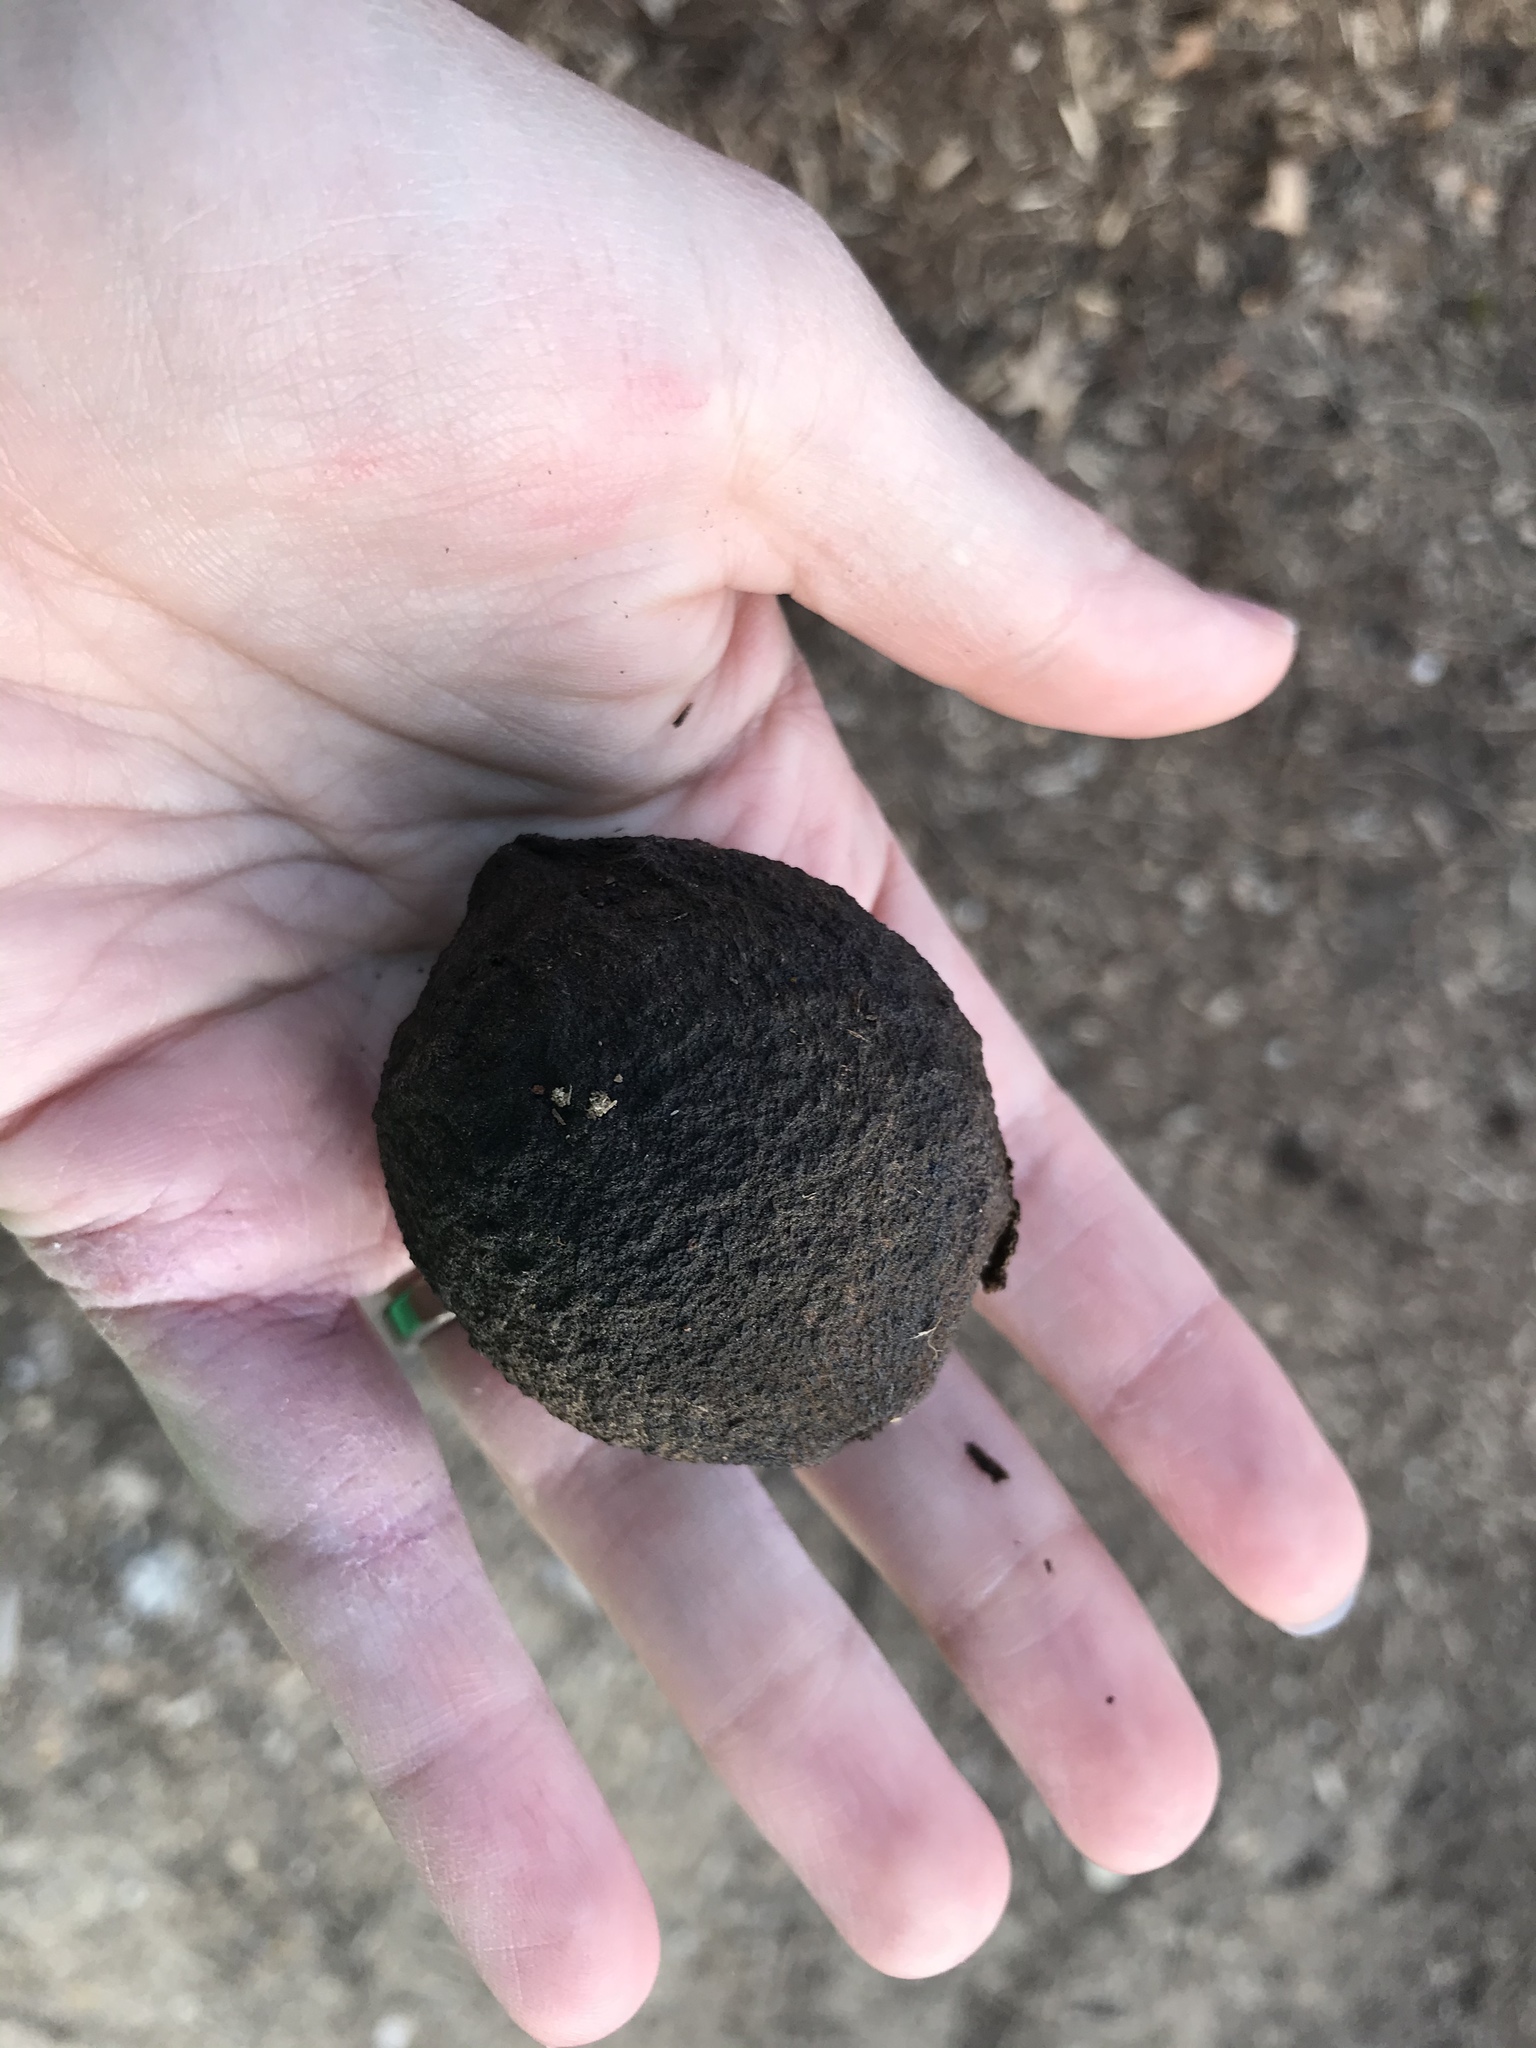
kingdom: Plantae
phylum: Tracheophyta
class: Magnoliopsida
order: Fagales
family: Juglandaceae
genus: Juglans
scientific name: Juglans nigra
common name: Black walnut
